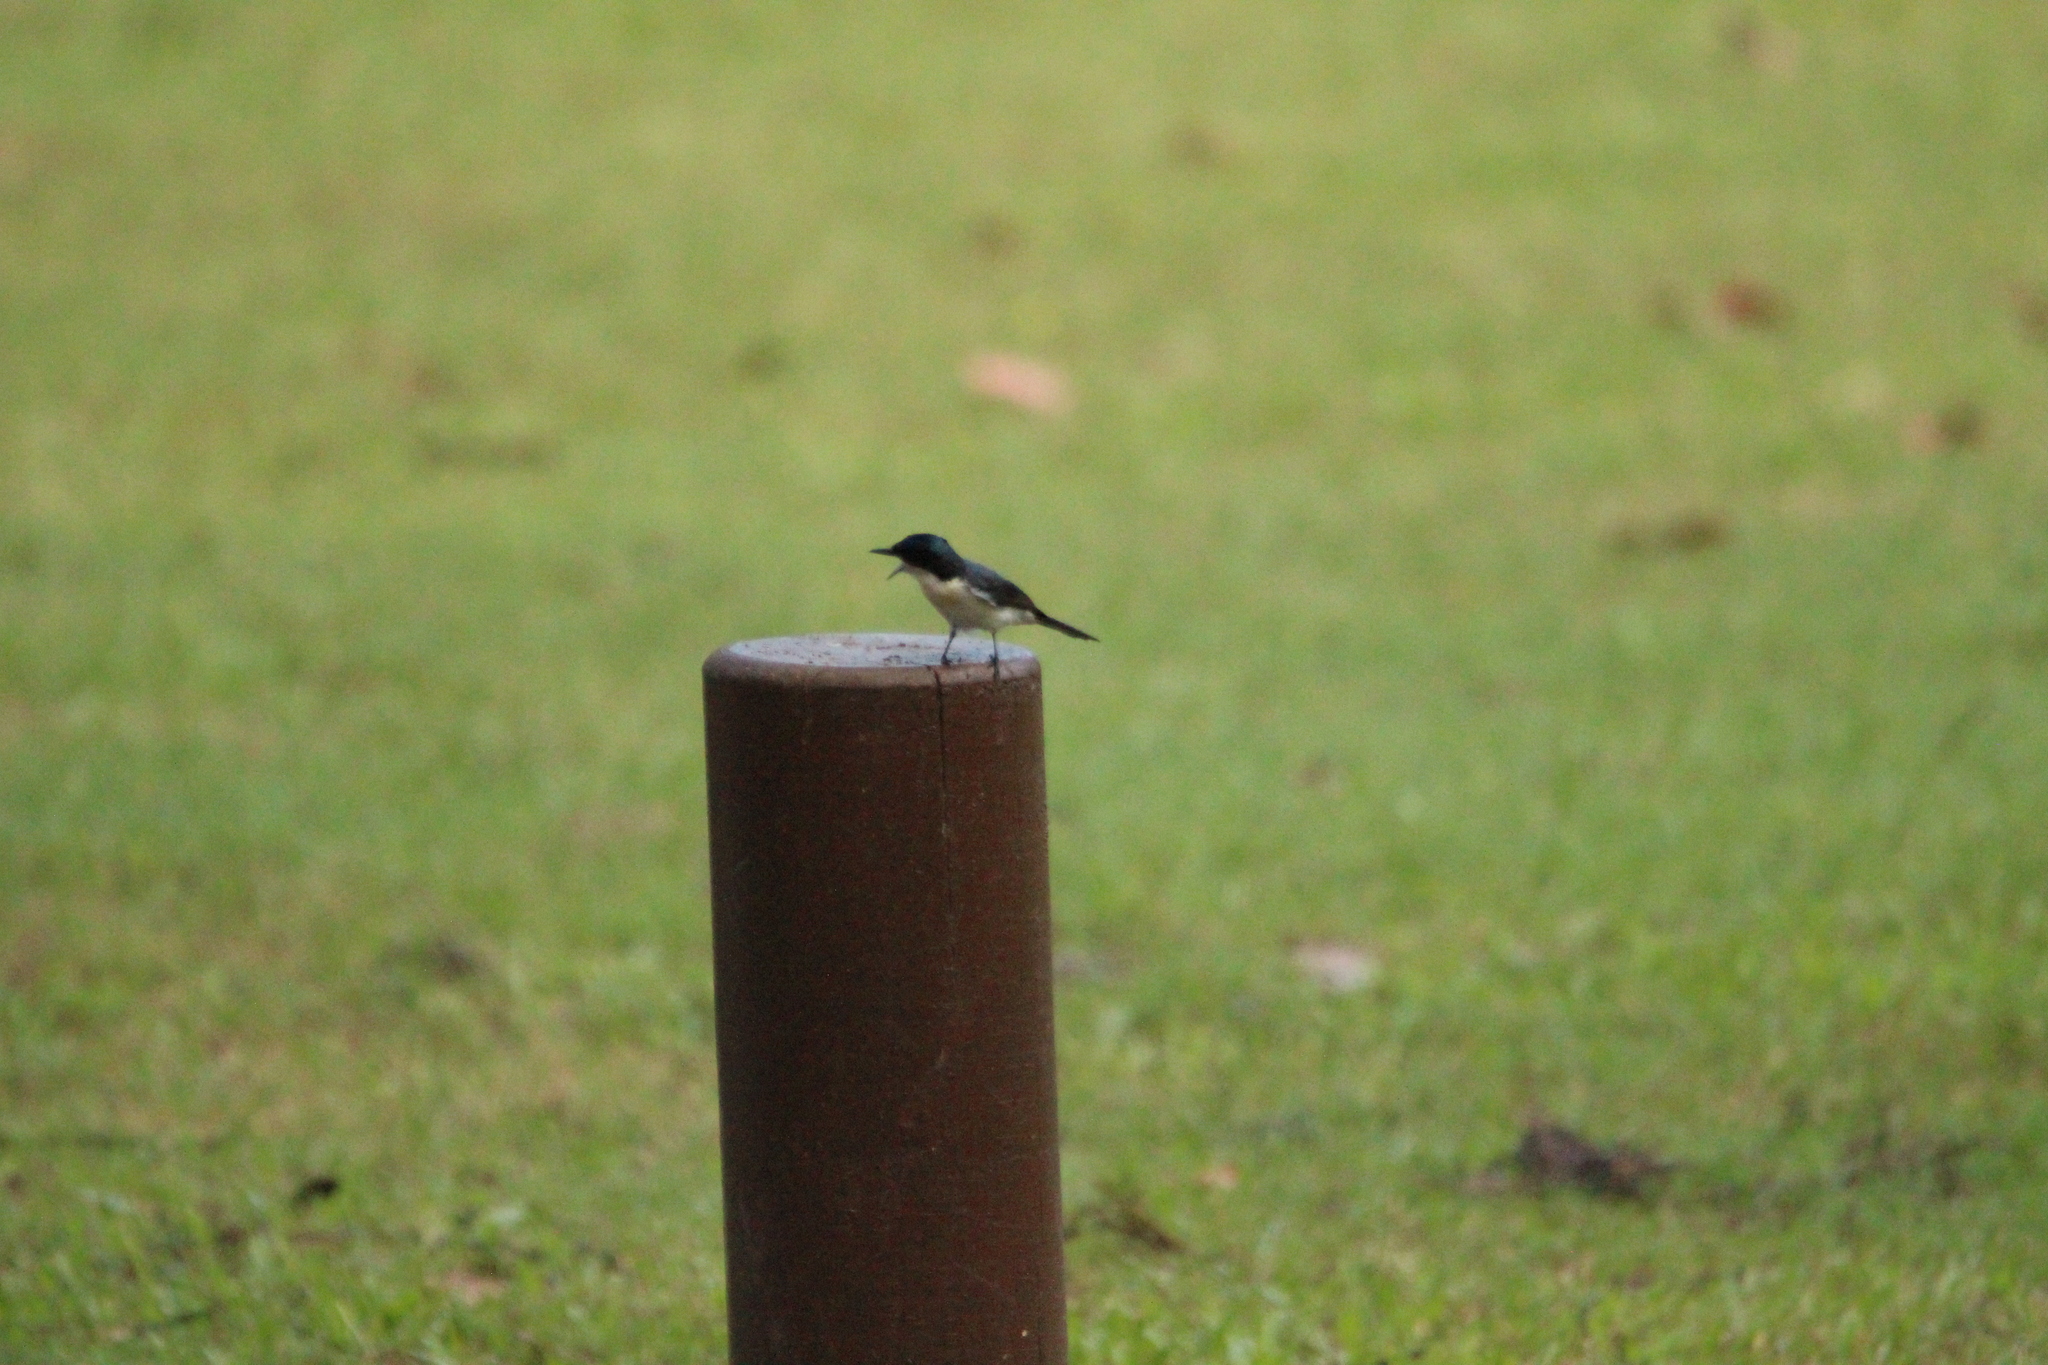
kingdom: Animalia
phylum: Chordata
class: Aves
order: Passeriformes
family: Monarchidae
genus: Myiagra
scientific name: Myiagra inquieta
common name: Restless flycatcher
